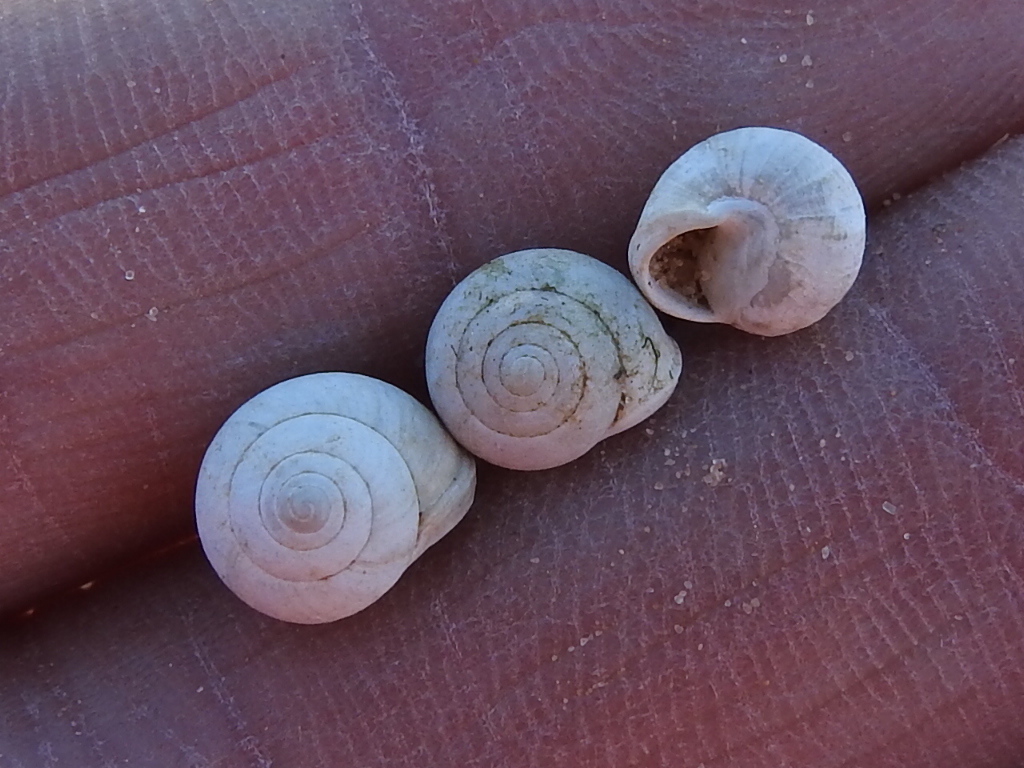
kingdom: Animalia
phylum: Mollusca
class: Gastropoda
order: Cycloneritida
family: Helicinidae
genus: Helicina
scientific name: Helicina orbiculata
